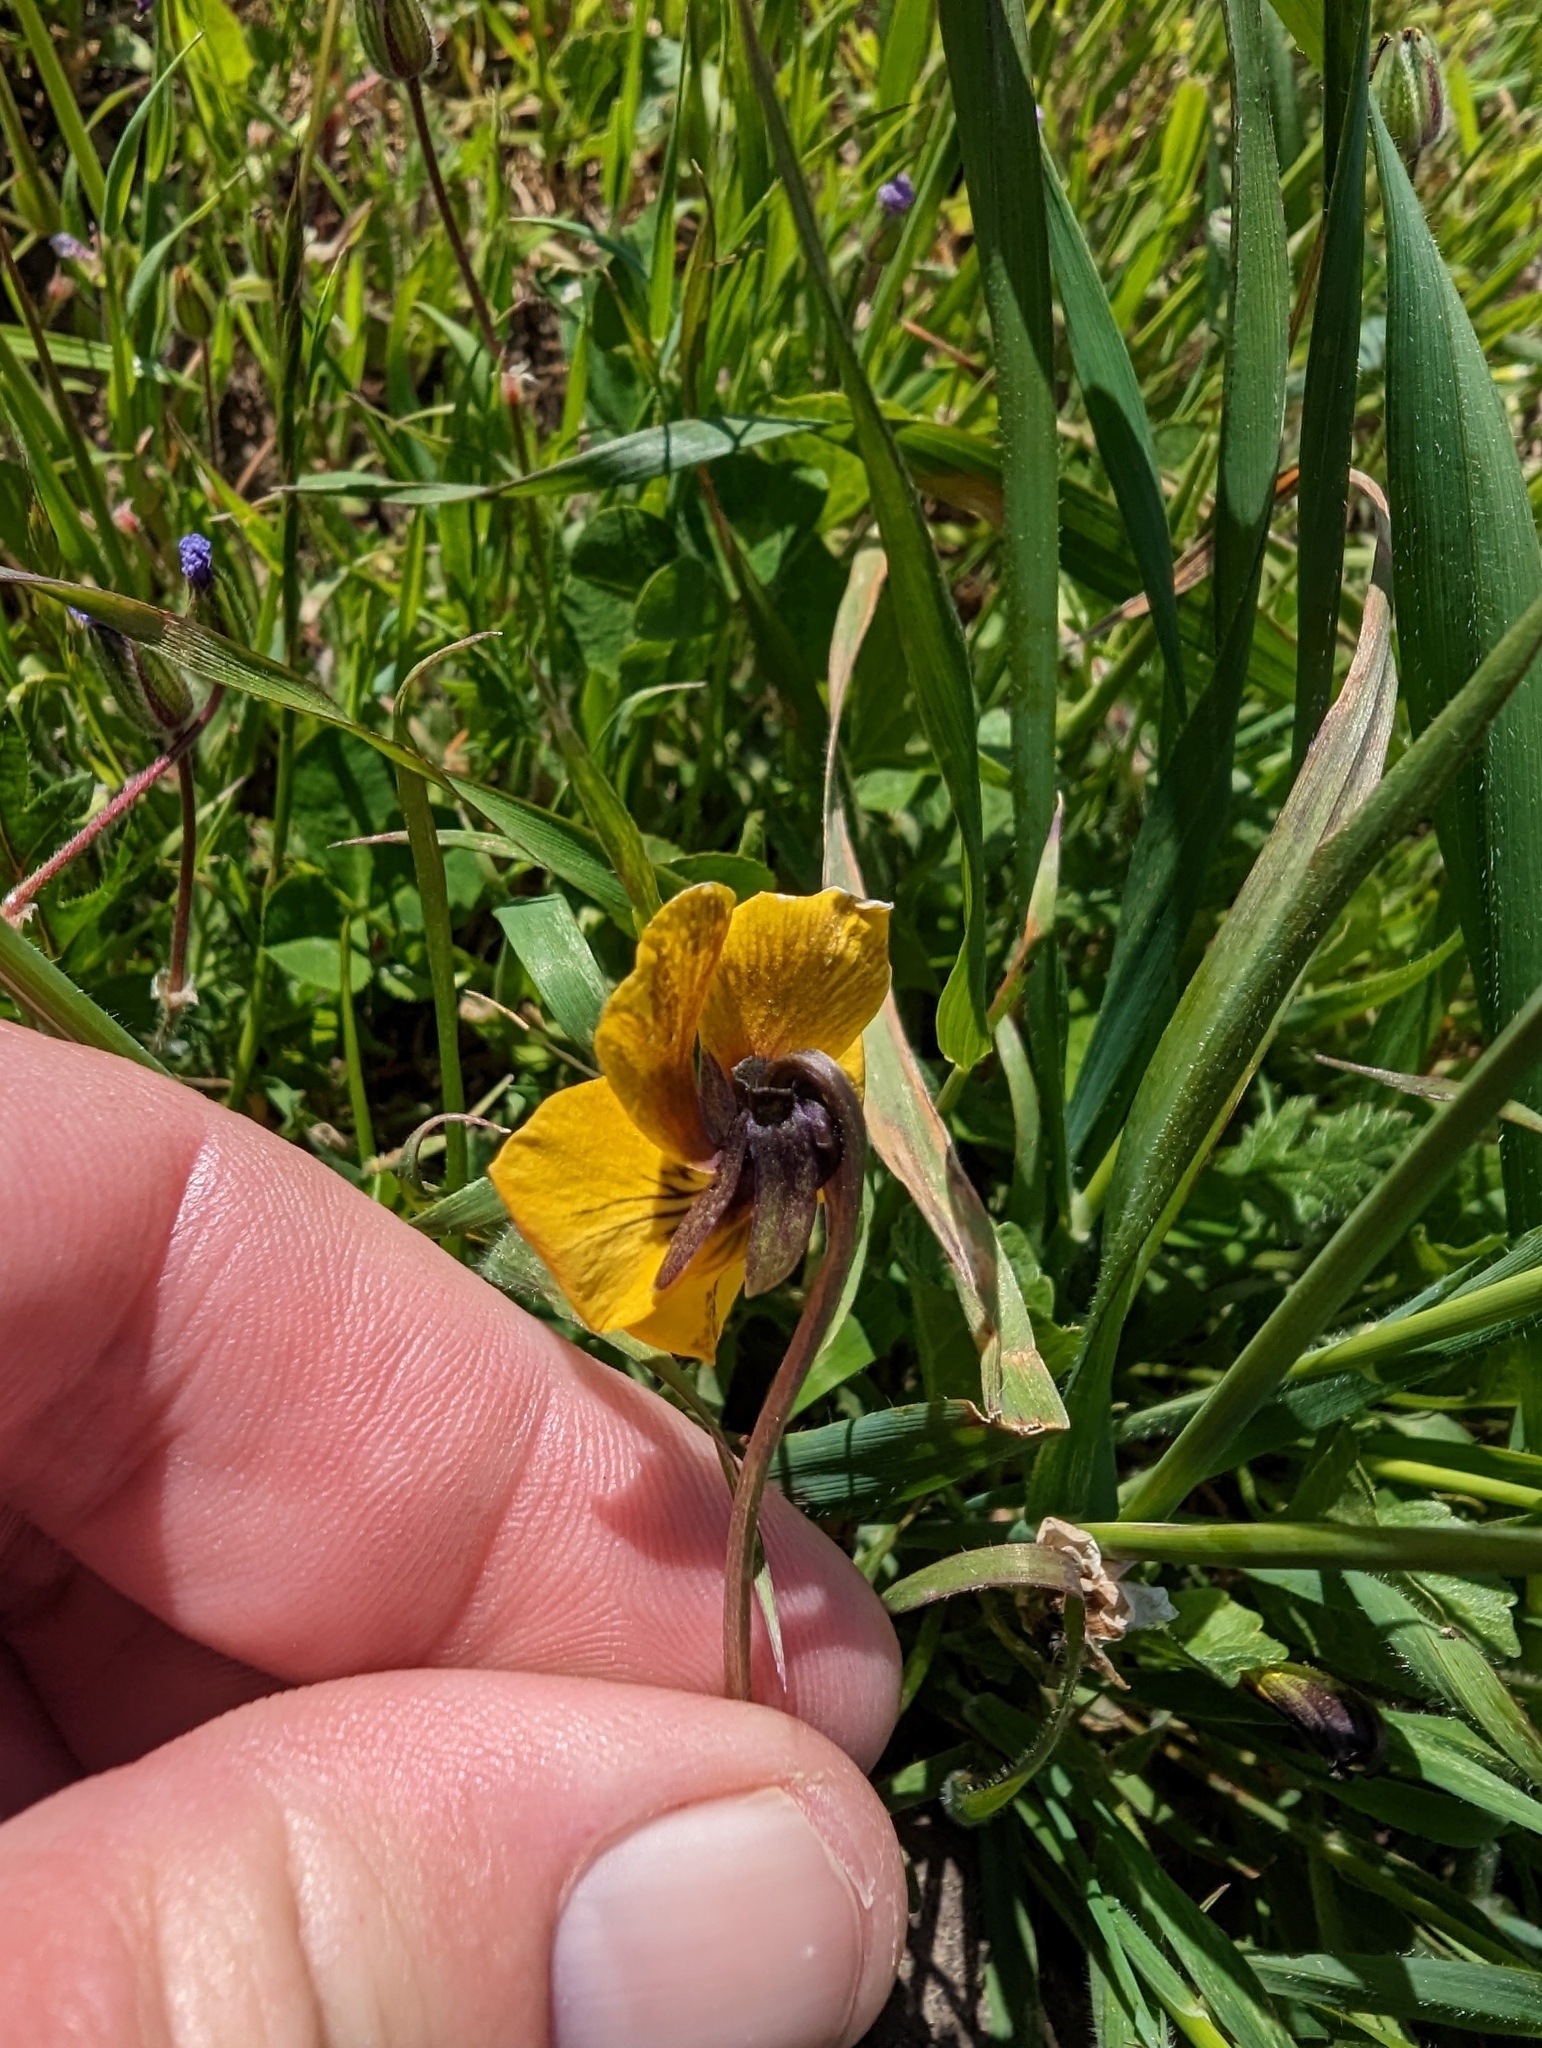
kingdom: Plantae
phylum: Tracheophyta
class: Magnoliopsida
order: Malpighiales
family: Violaceae
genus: Viola
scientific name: Viola pedunculata
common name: California golden violet
